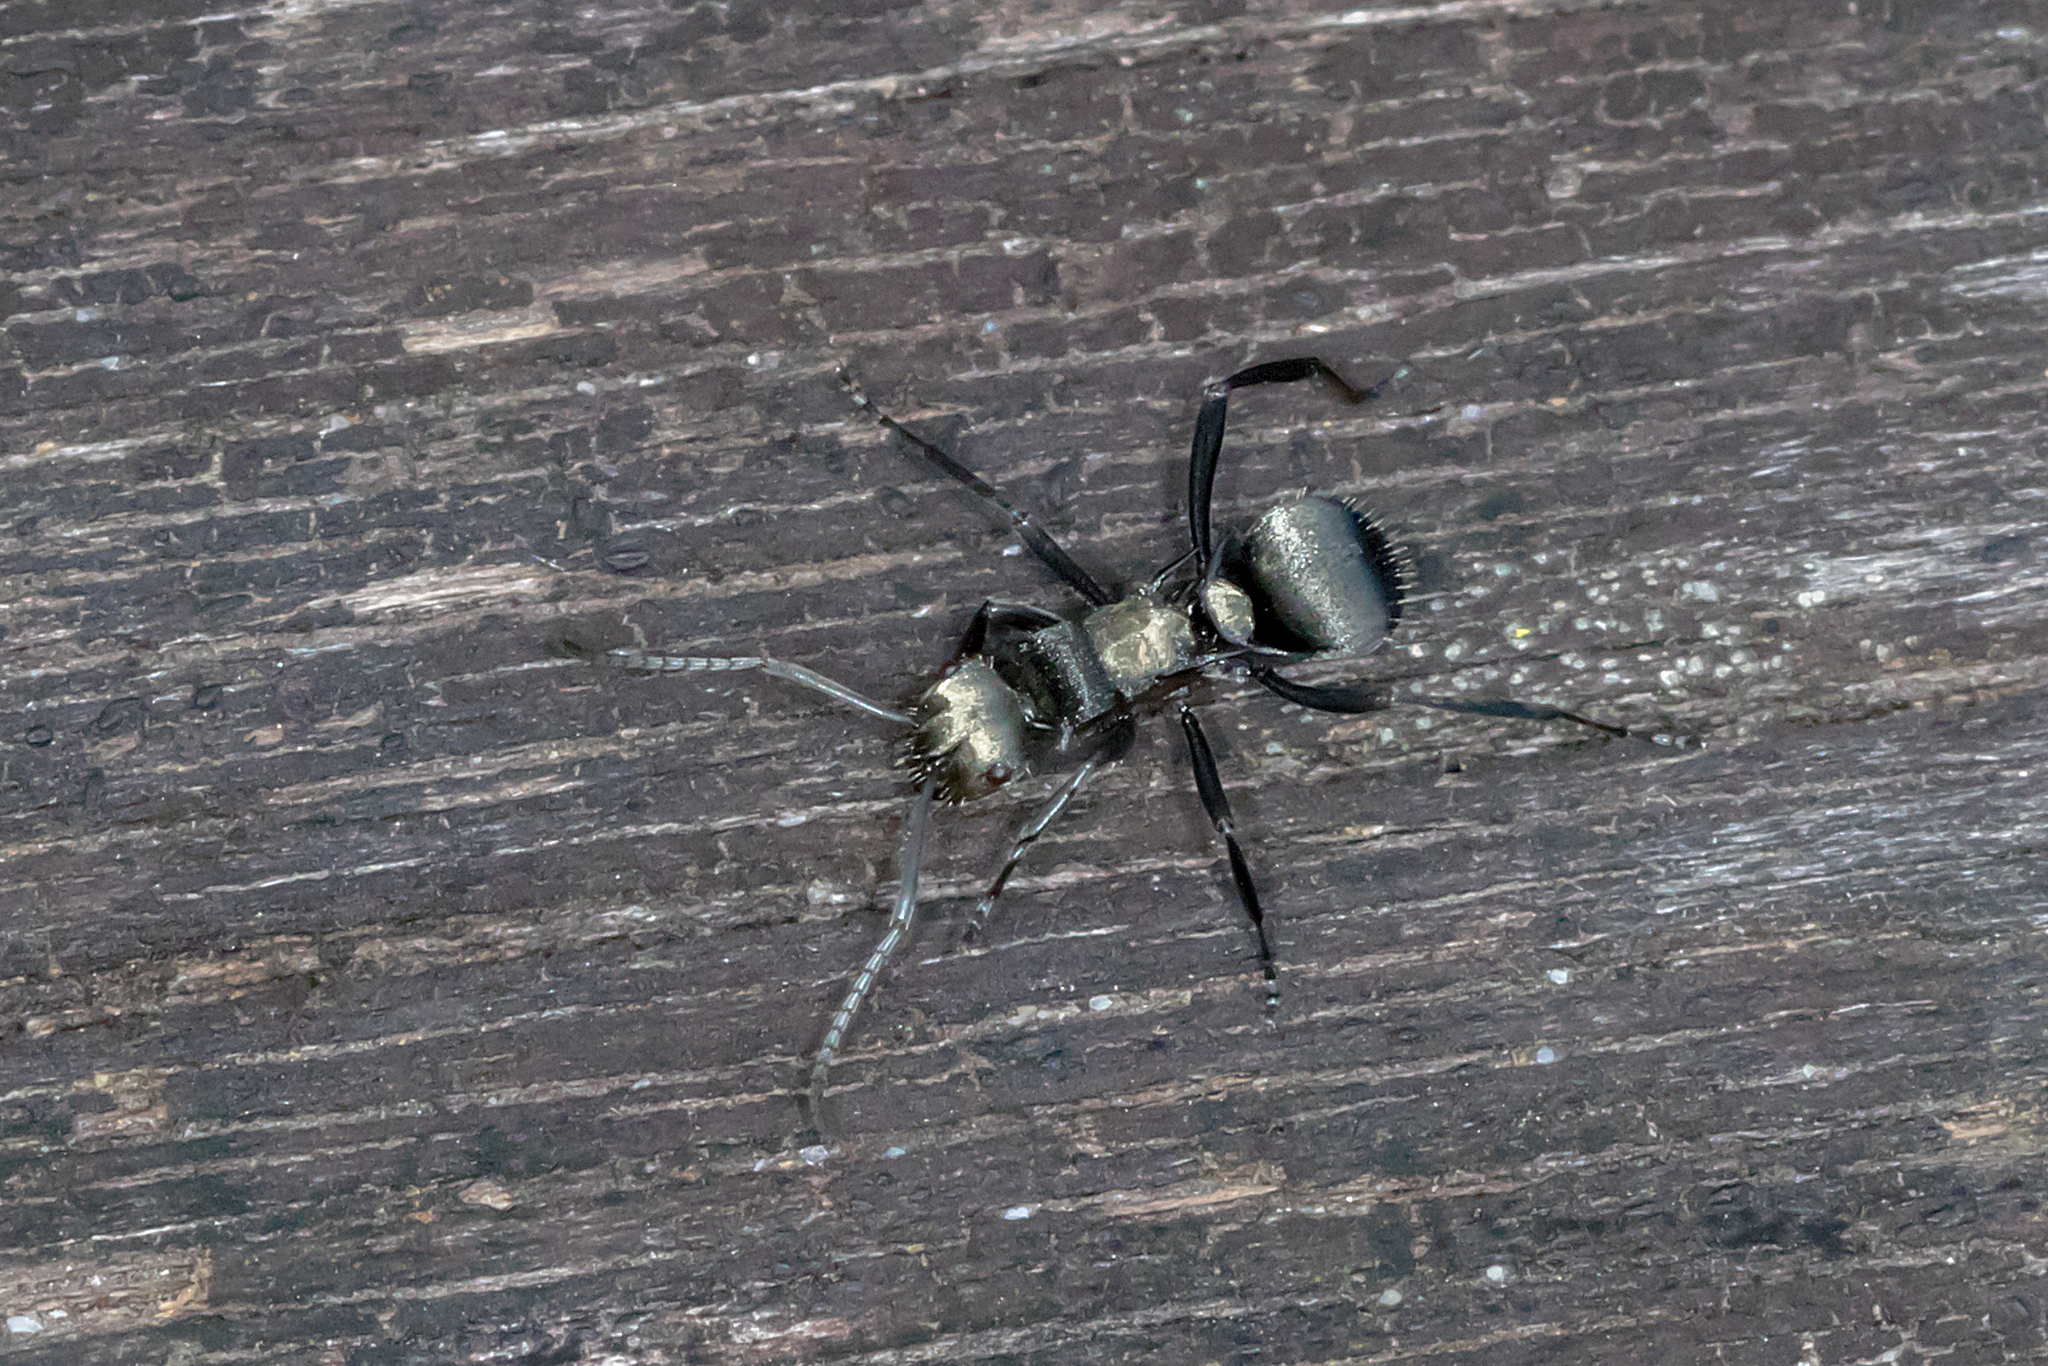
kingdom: Animalia
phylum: Arthropoda
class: Insecta
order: Hymenoptera
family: Formicidae
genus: Polyrhachis
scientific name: Polyrhachis daemeli
